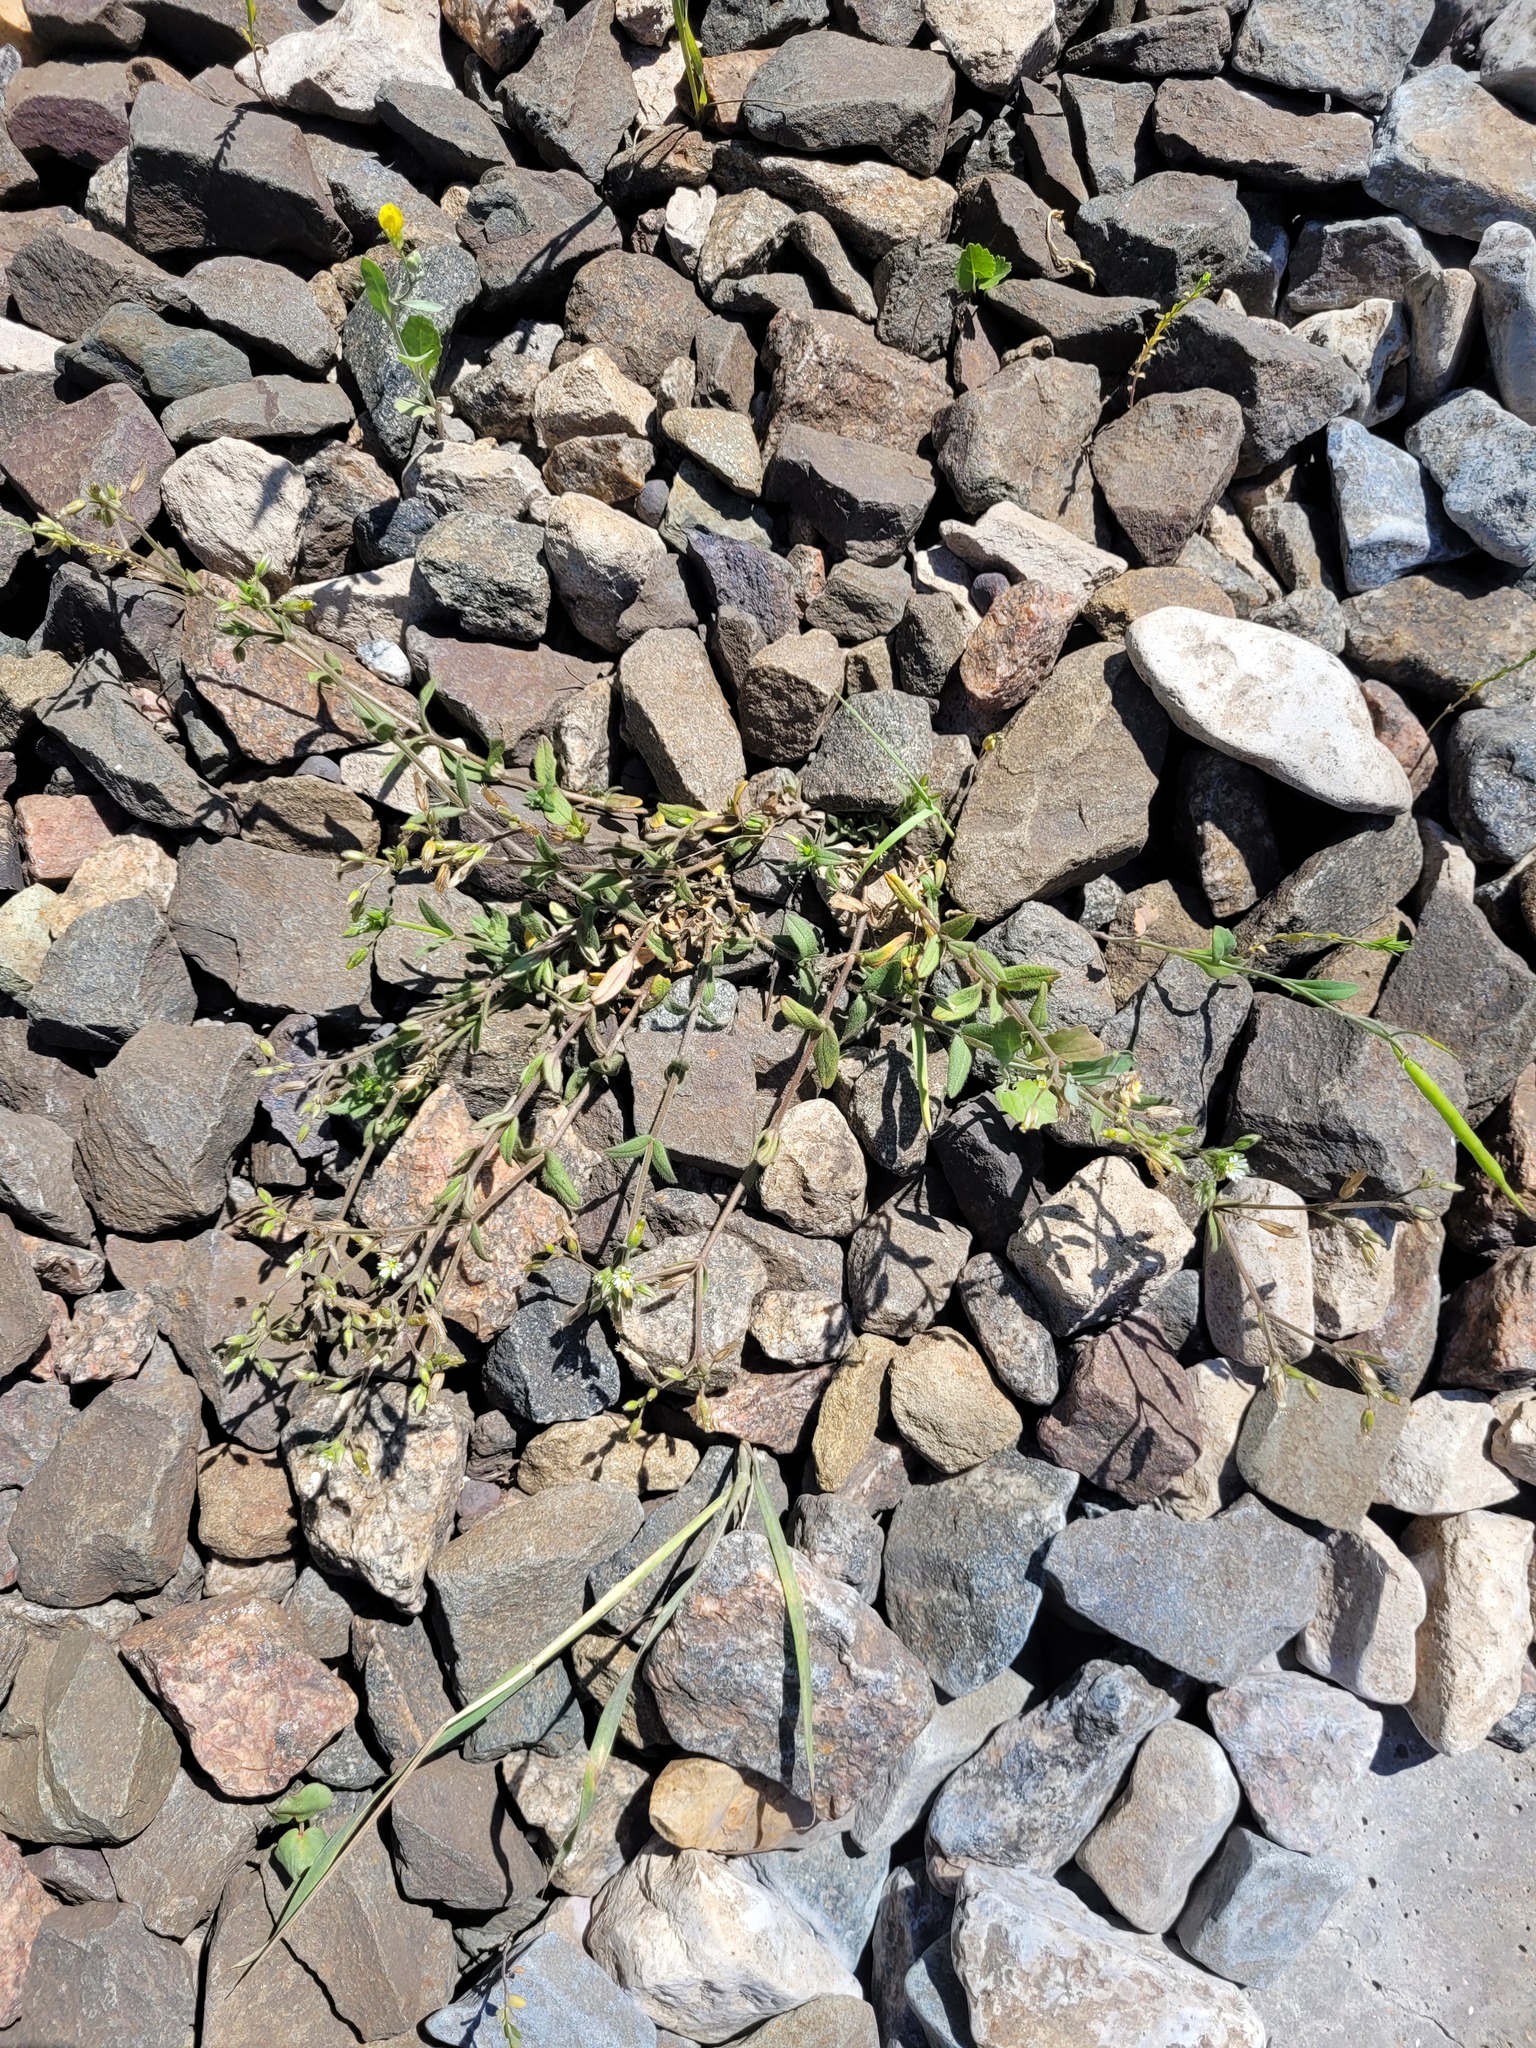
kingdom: Plantae
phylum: Tracheophyta
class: Magnoliopsida
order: Caryophyllales
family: Caryophyllaceae
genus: Cerastium
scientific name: Cerastium holosteoides
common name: Big chickweed
